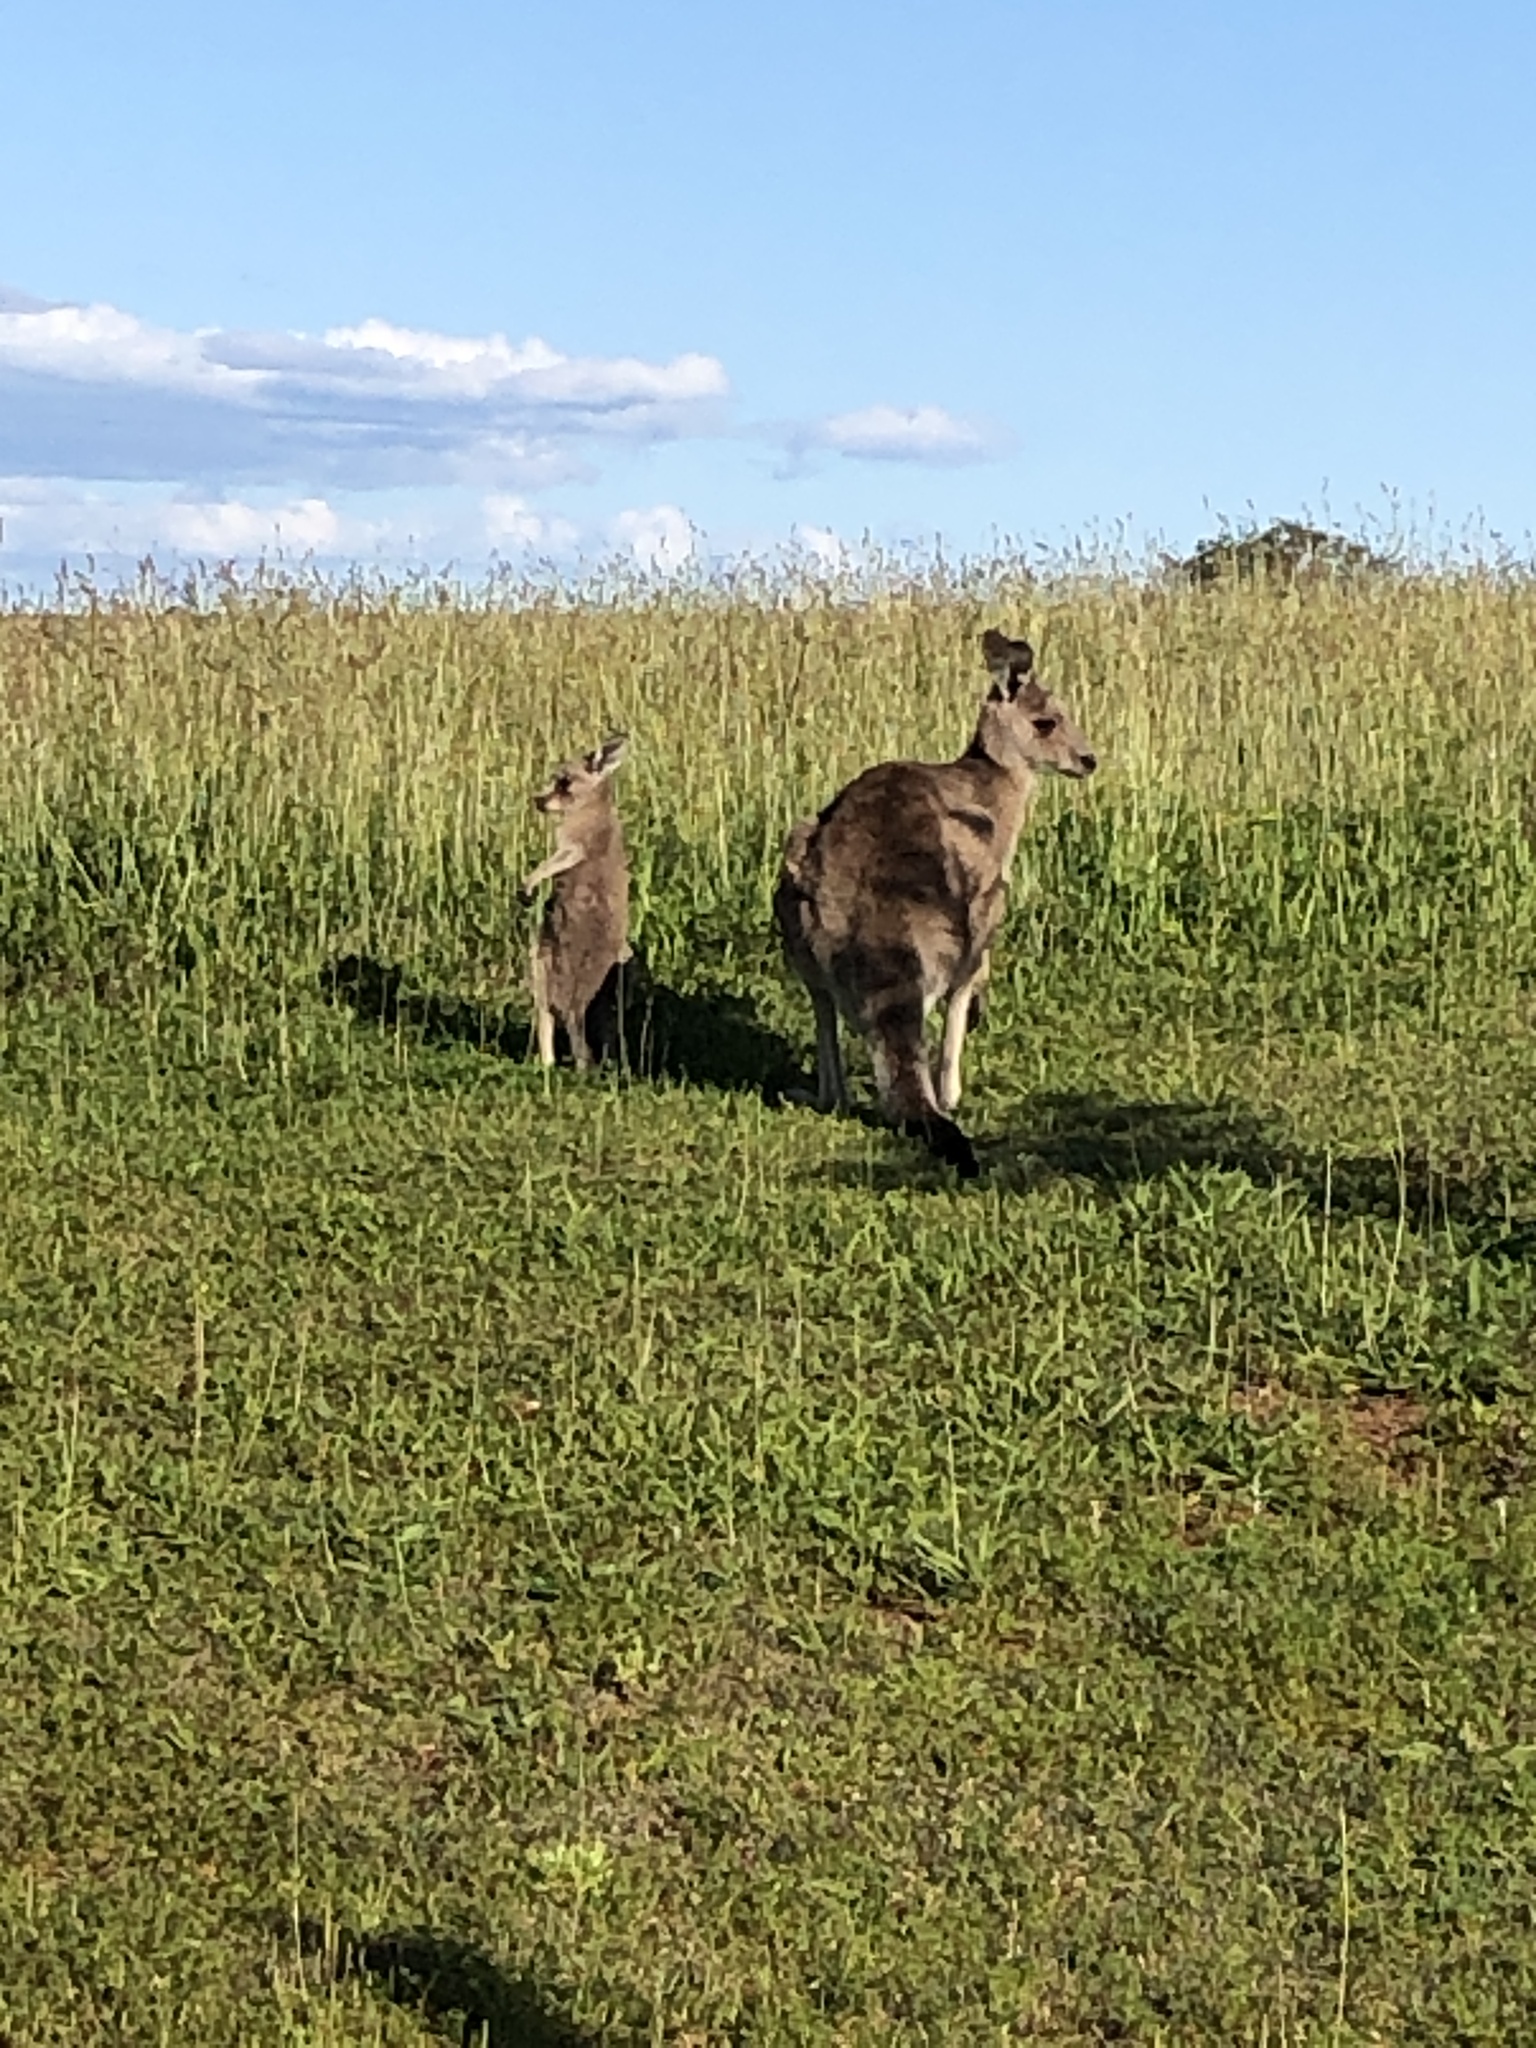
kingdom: Animalia
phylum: Chordata
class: Mammalia
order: Diprotodontia
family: Macropodidae
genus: Macropus
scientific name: Macropus giganteus
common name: Eastern grey kangaroo
